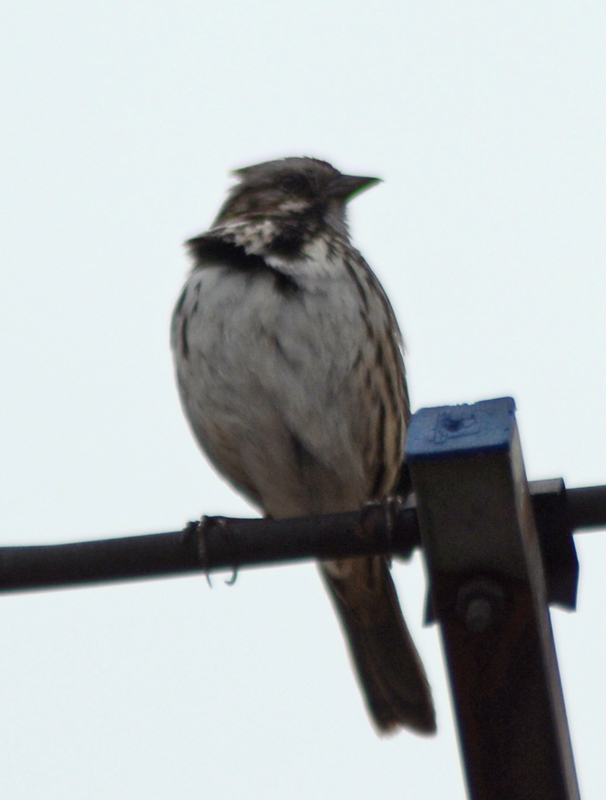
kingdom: Animalia
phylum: Chordata
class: Aves
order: Passeriformes
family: Passerellidae
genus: Melospiza
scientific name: Melospiza melodia
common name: Song sparrow
